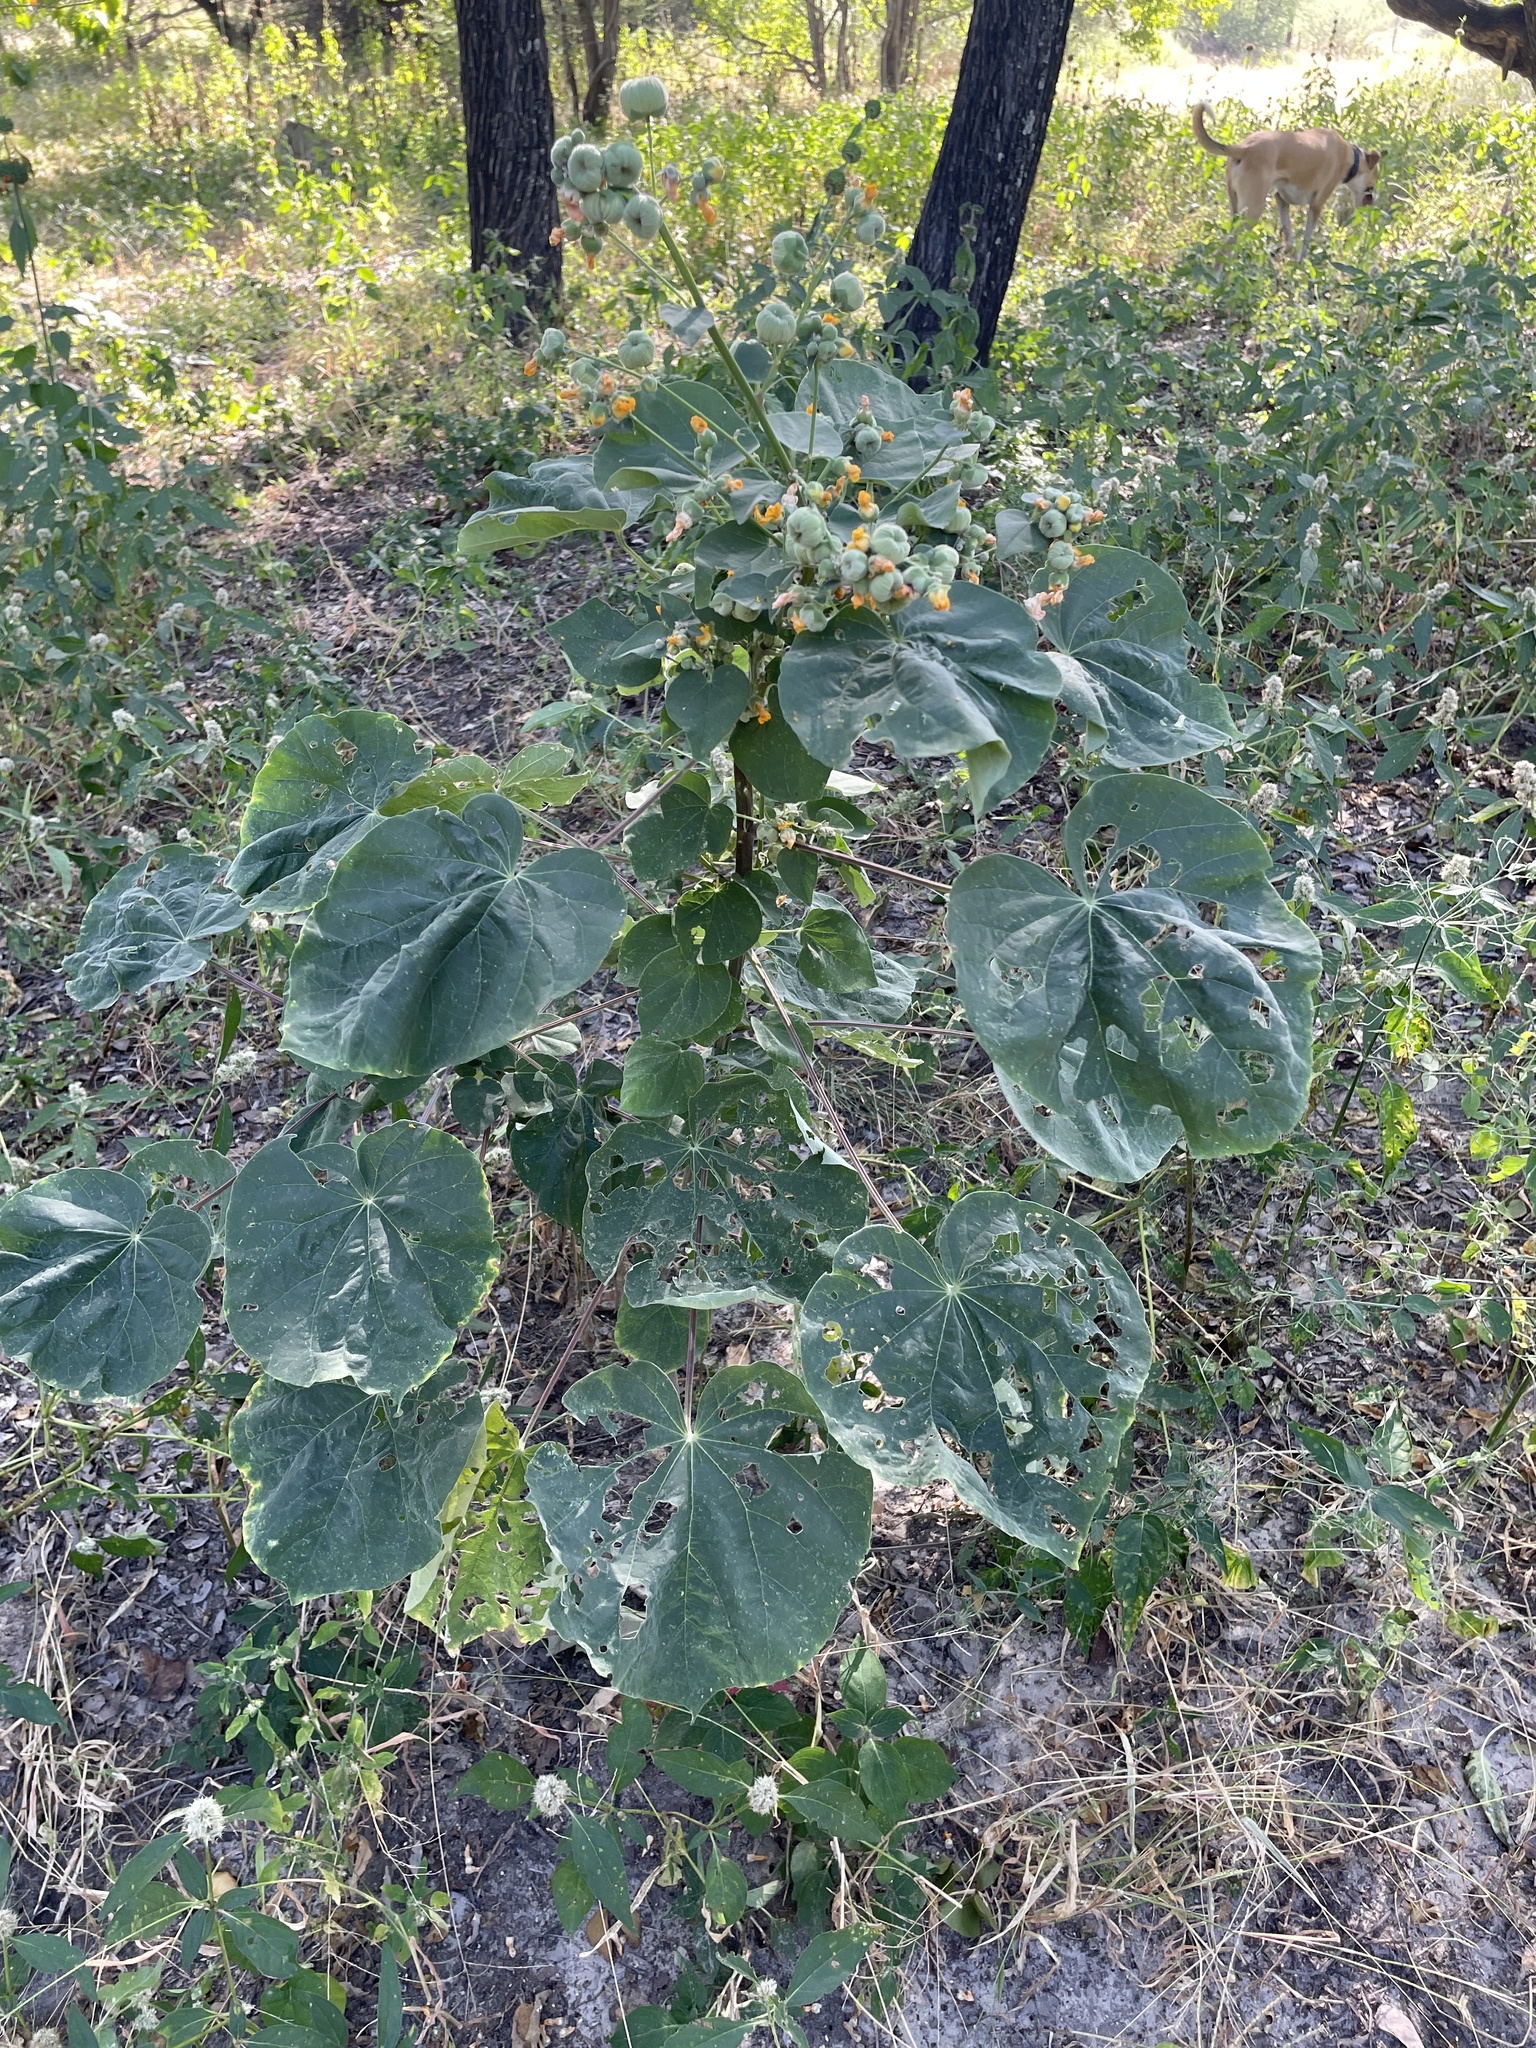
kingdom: Plantae
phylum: Tracheophyta
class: Magnoliopsida
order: Malvales
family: Malvaceae
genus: Abutilon
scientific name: Abutilon angulatum
